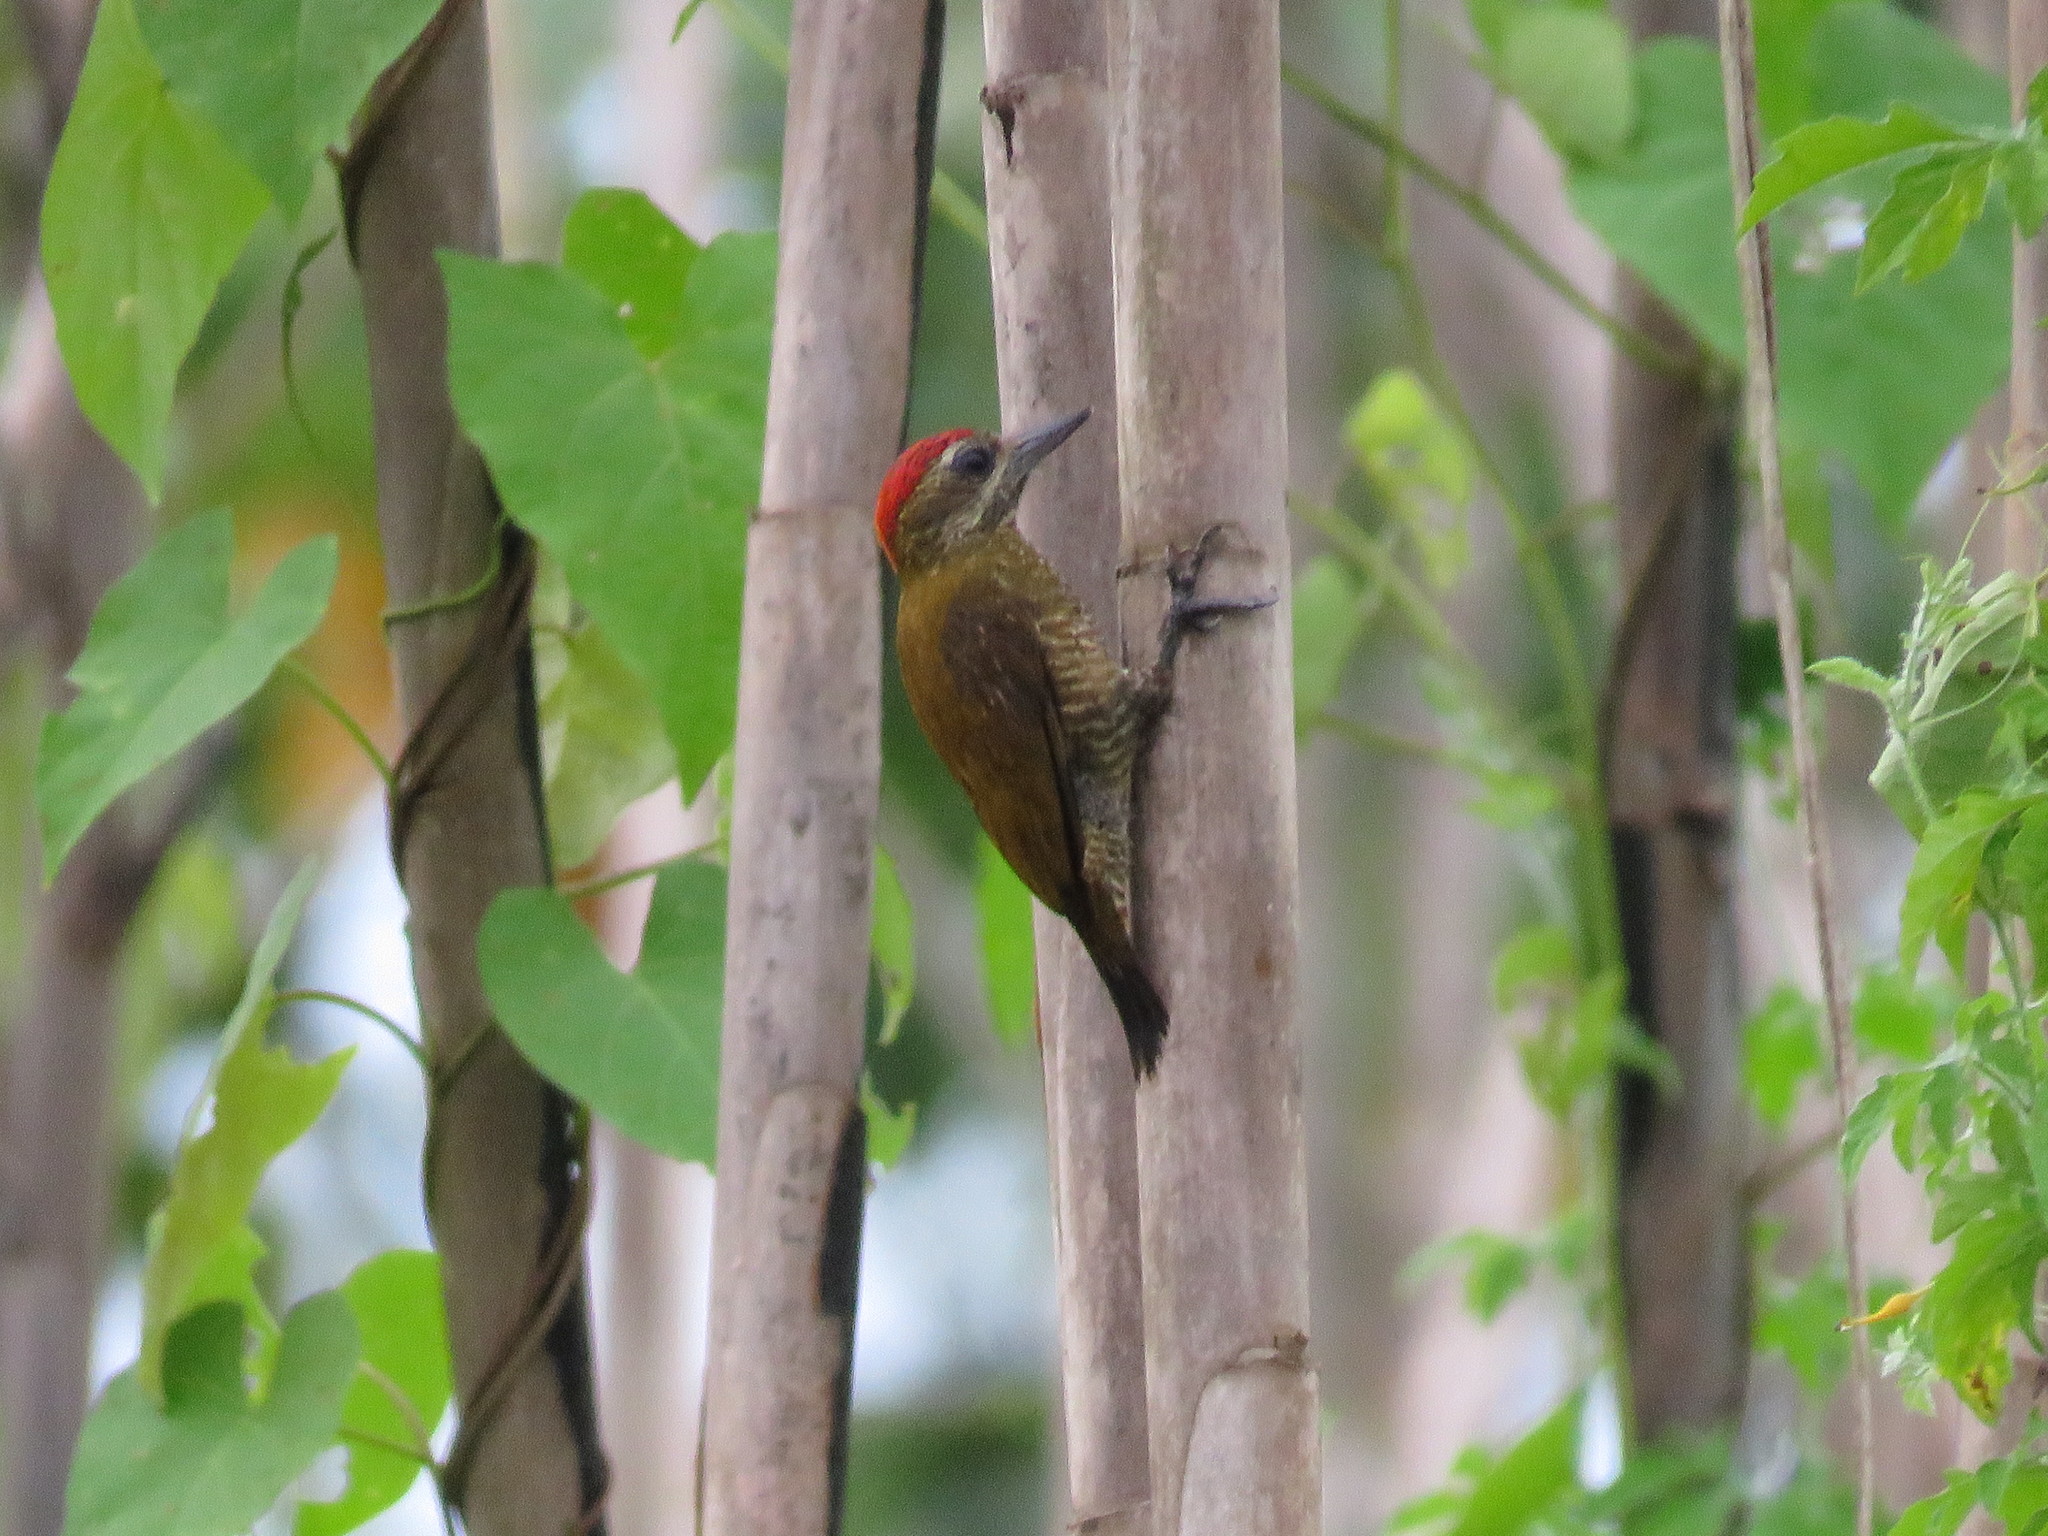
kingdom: Animalia
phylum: Chordata
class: Aves
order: Piciformes
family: Picidae
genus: Veniliornis
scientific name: Veniliornis passerinus
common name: Little woodpecker
